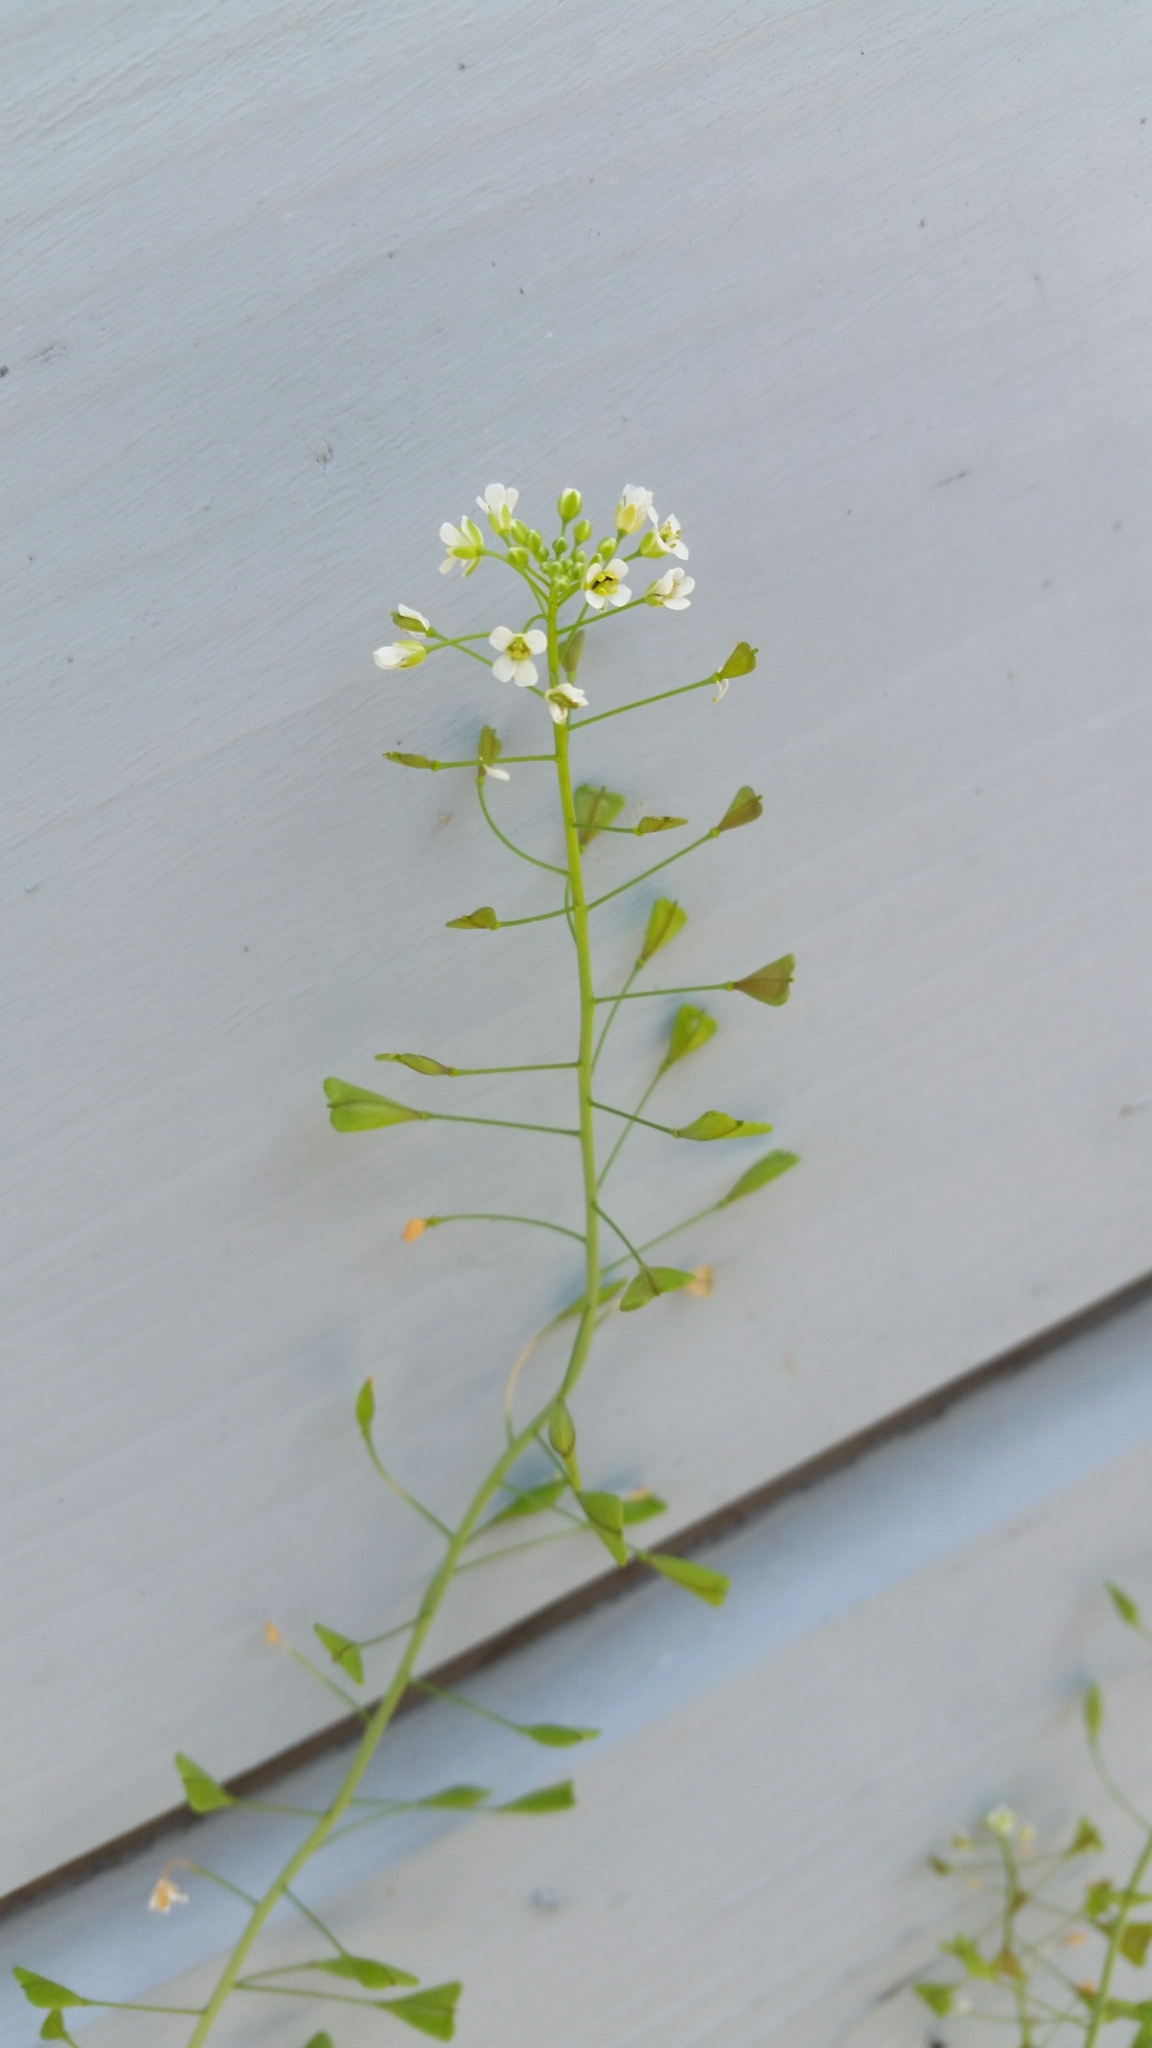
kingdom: Plantae
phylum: Tracheophyta
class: Magnoliopsida
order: Brassicales
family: Brassicaceae
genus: Capsella
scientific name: Capsella bursa-pastoris
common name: Shepherd's purse
